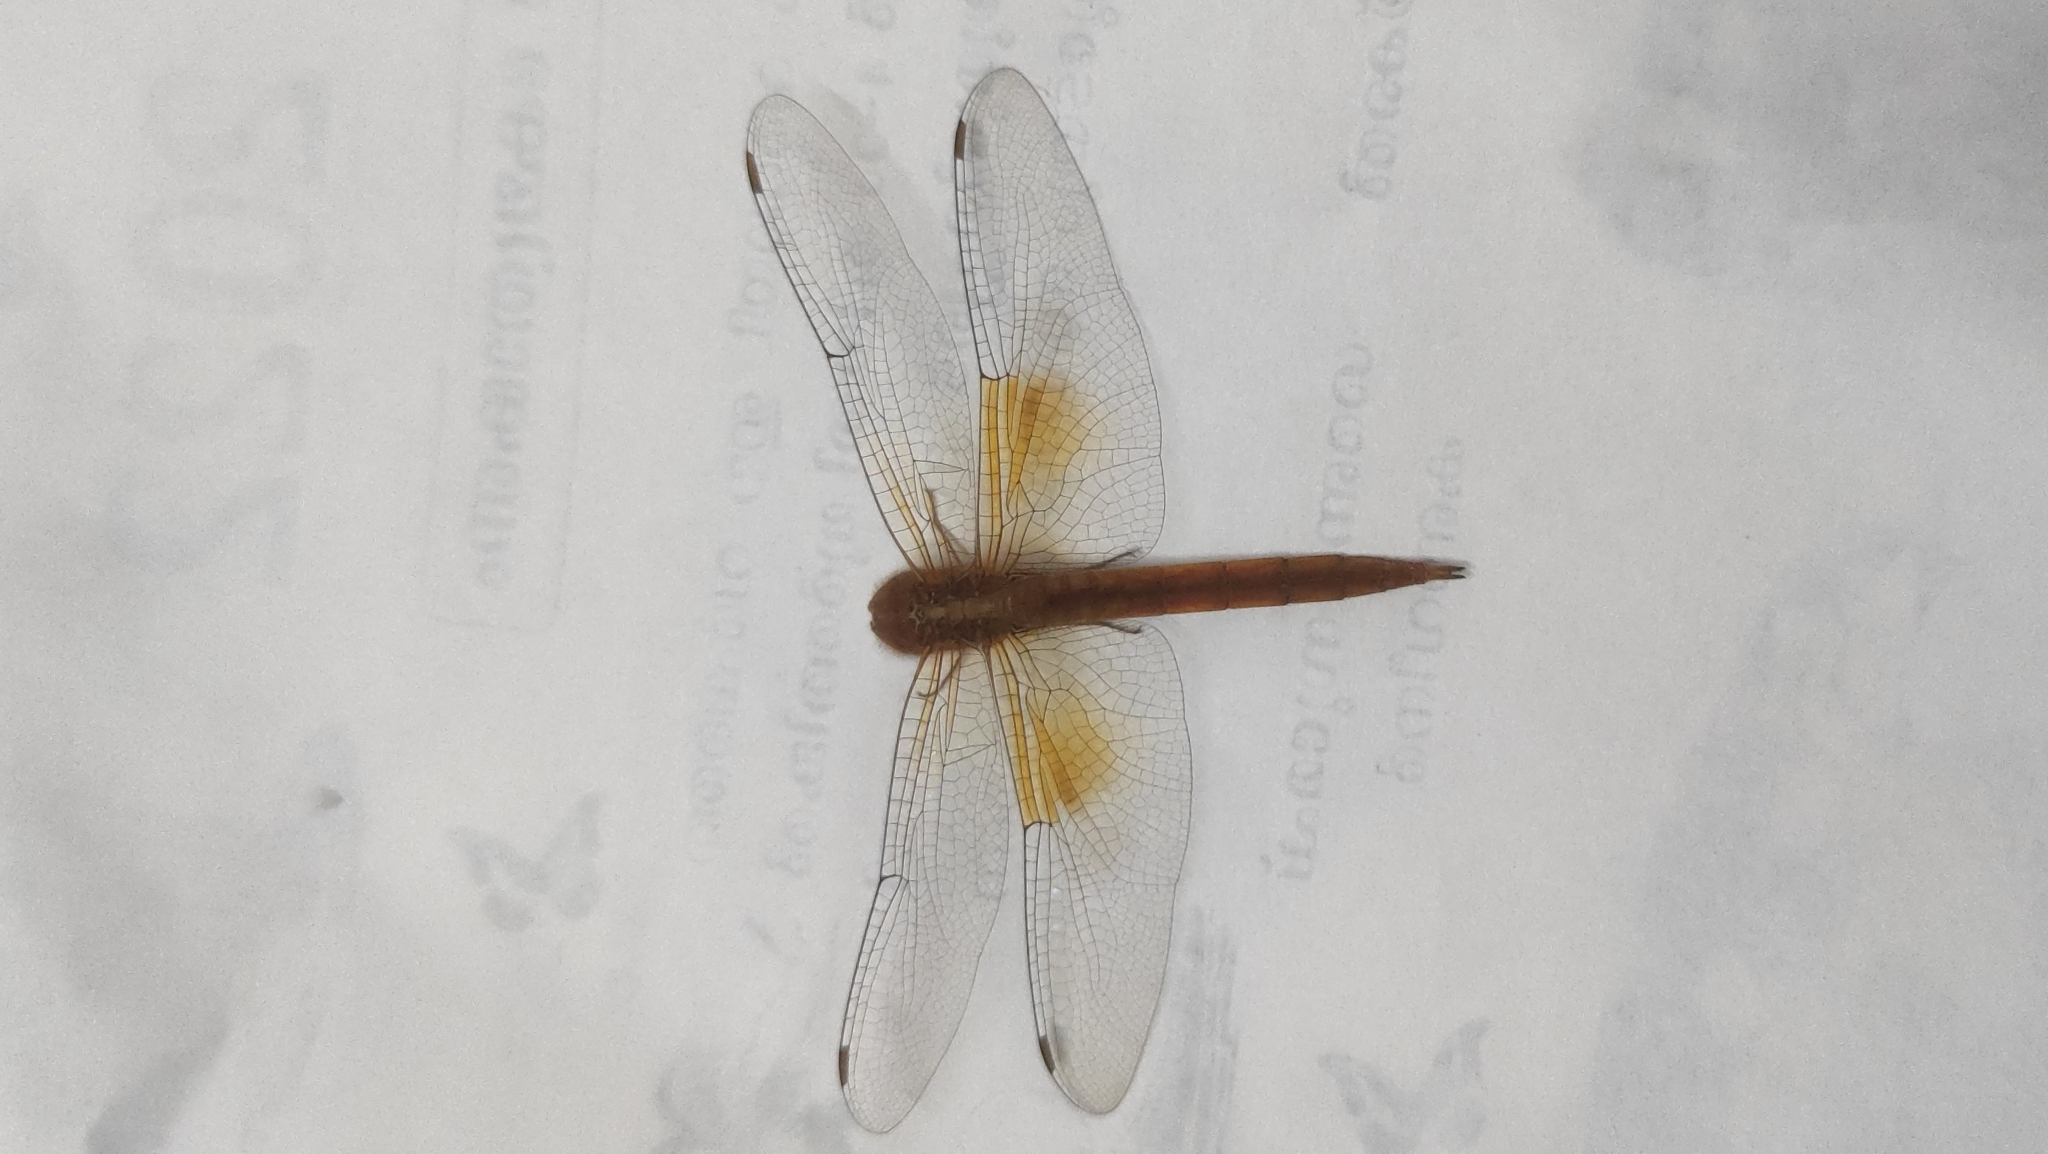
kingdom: Animalia
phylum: Arthropoda
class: Insecta
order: Odonata
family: Libellulidae
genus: Tholymis
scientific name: Tholymis tillarga
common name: Coral-tailed cloud wing
